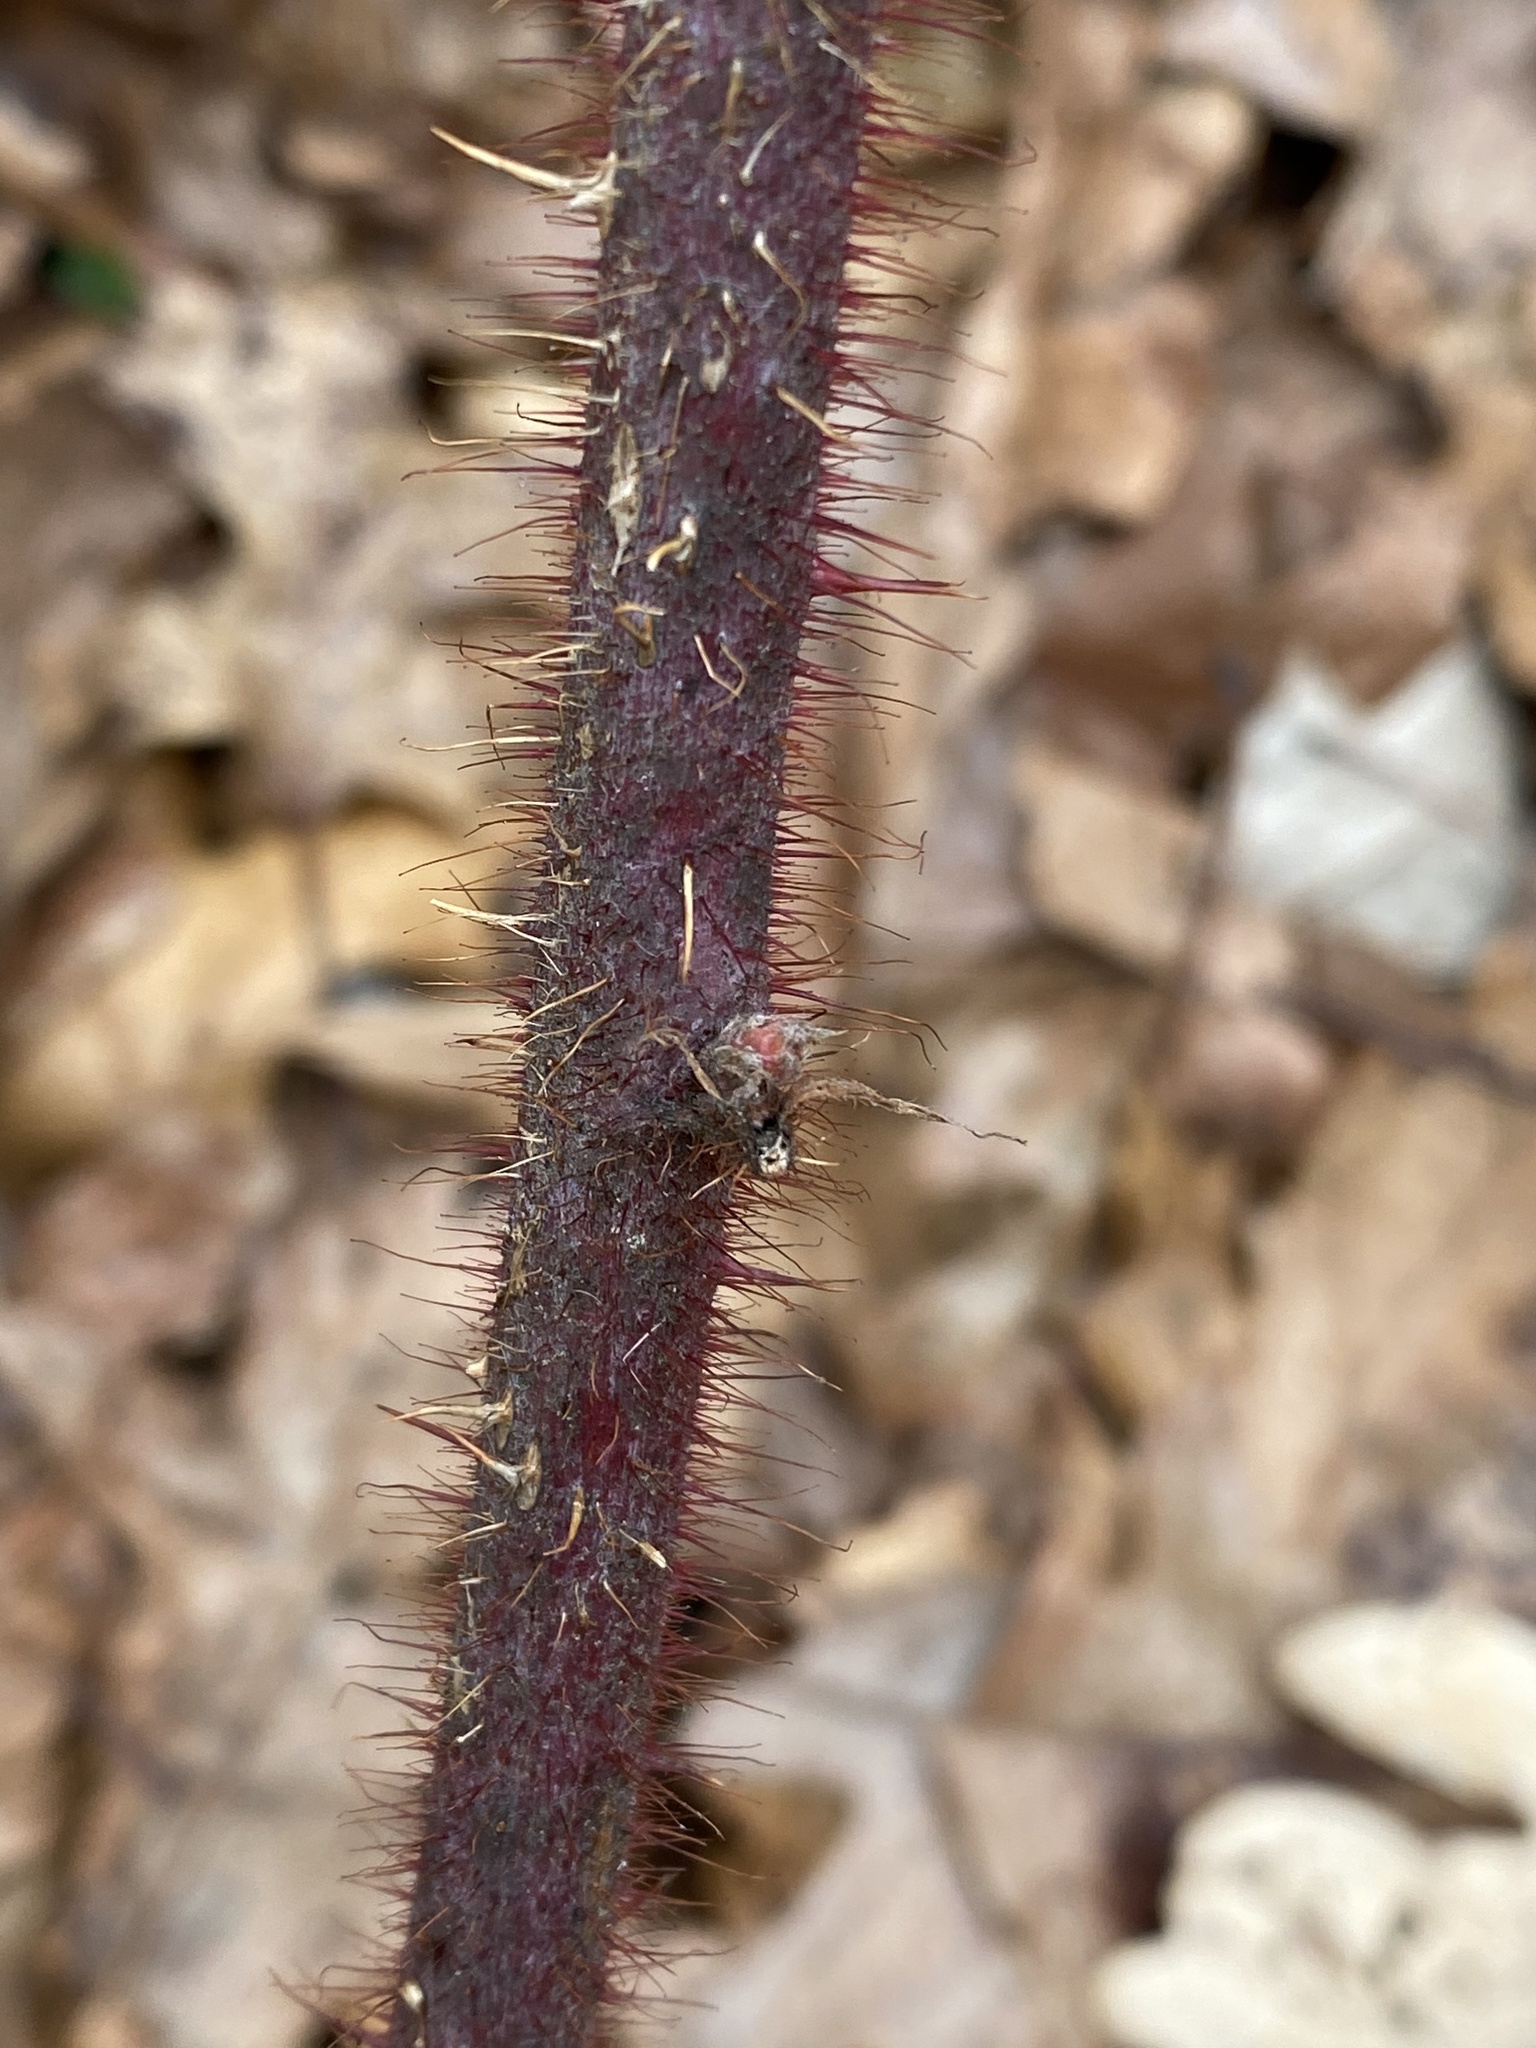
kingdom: Plantae
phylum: Tracheophyta
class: Magnoliopsida
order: Rosales
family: Rosaceae
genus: Rubus
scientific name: Rubus phoenicolasius
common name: Japanese wineberry
